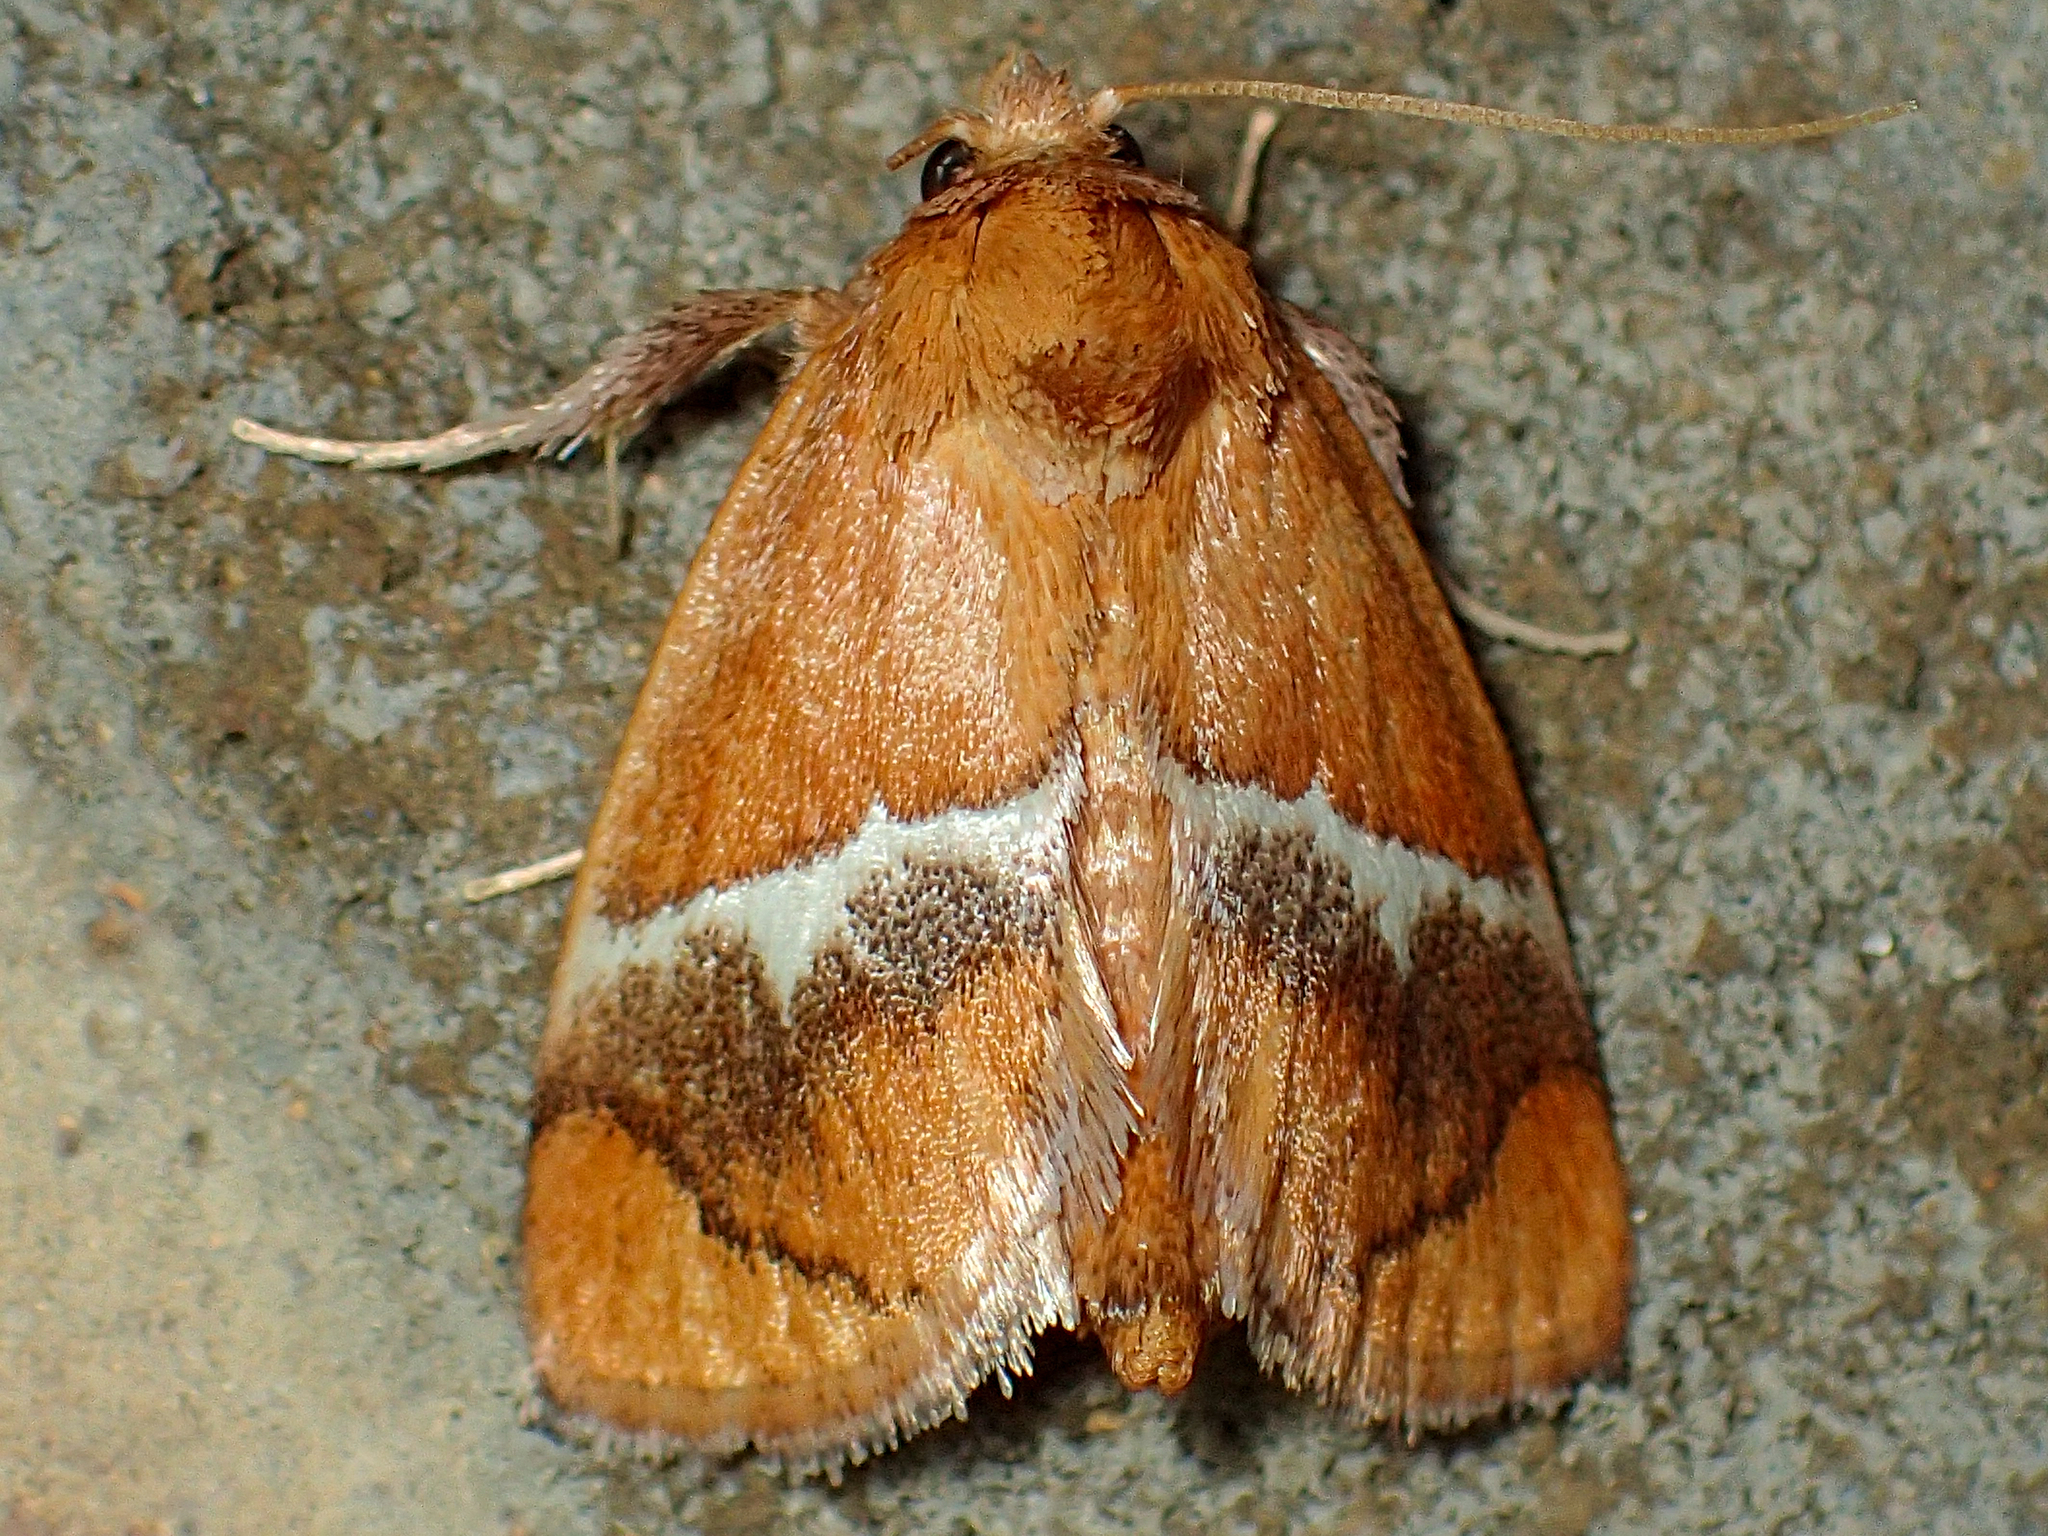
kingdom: Animalia
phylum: Arthropoda
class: Insecta
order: Lepidoptera
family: Limacodidae
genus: Lithacodes
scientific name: Lithacodes fasciola
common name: Yellow-shouldered slug moth
